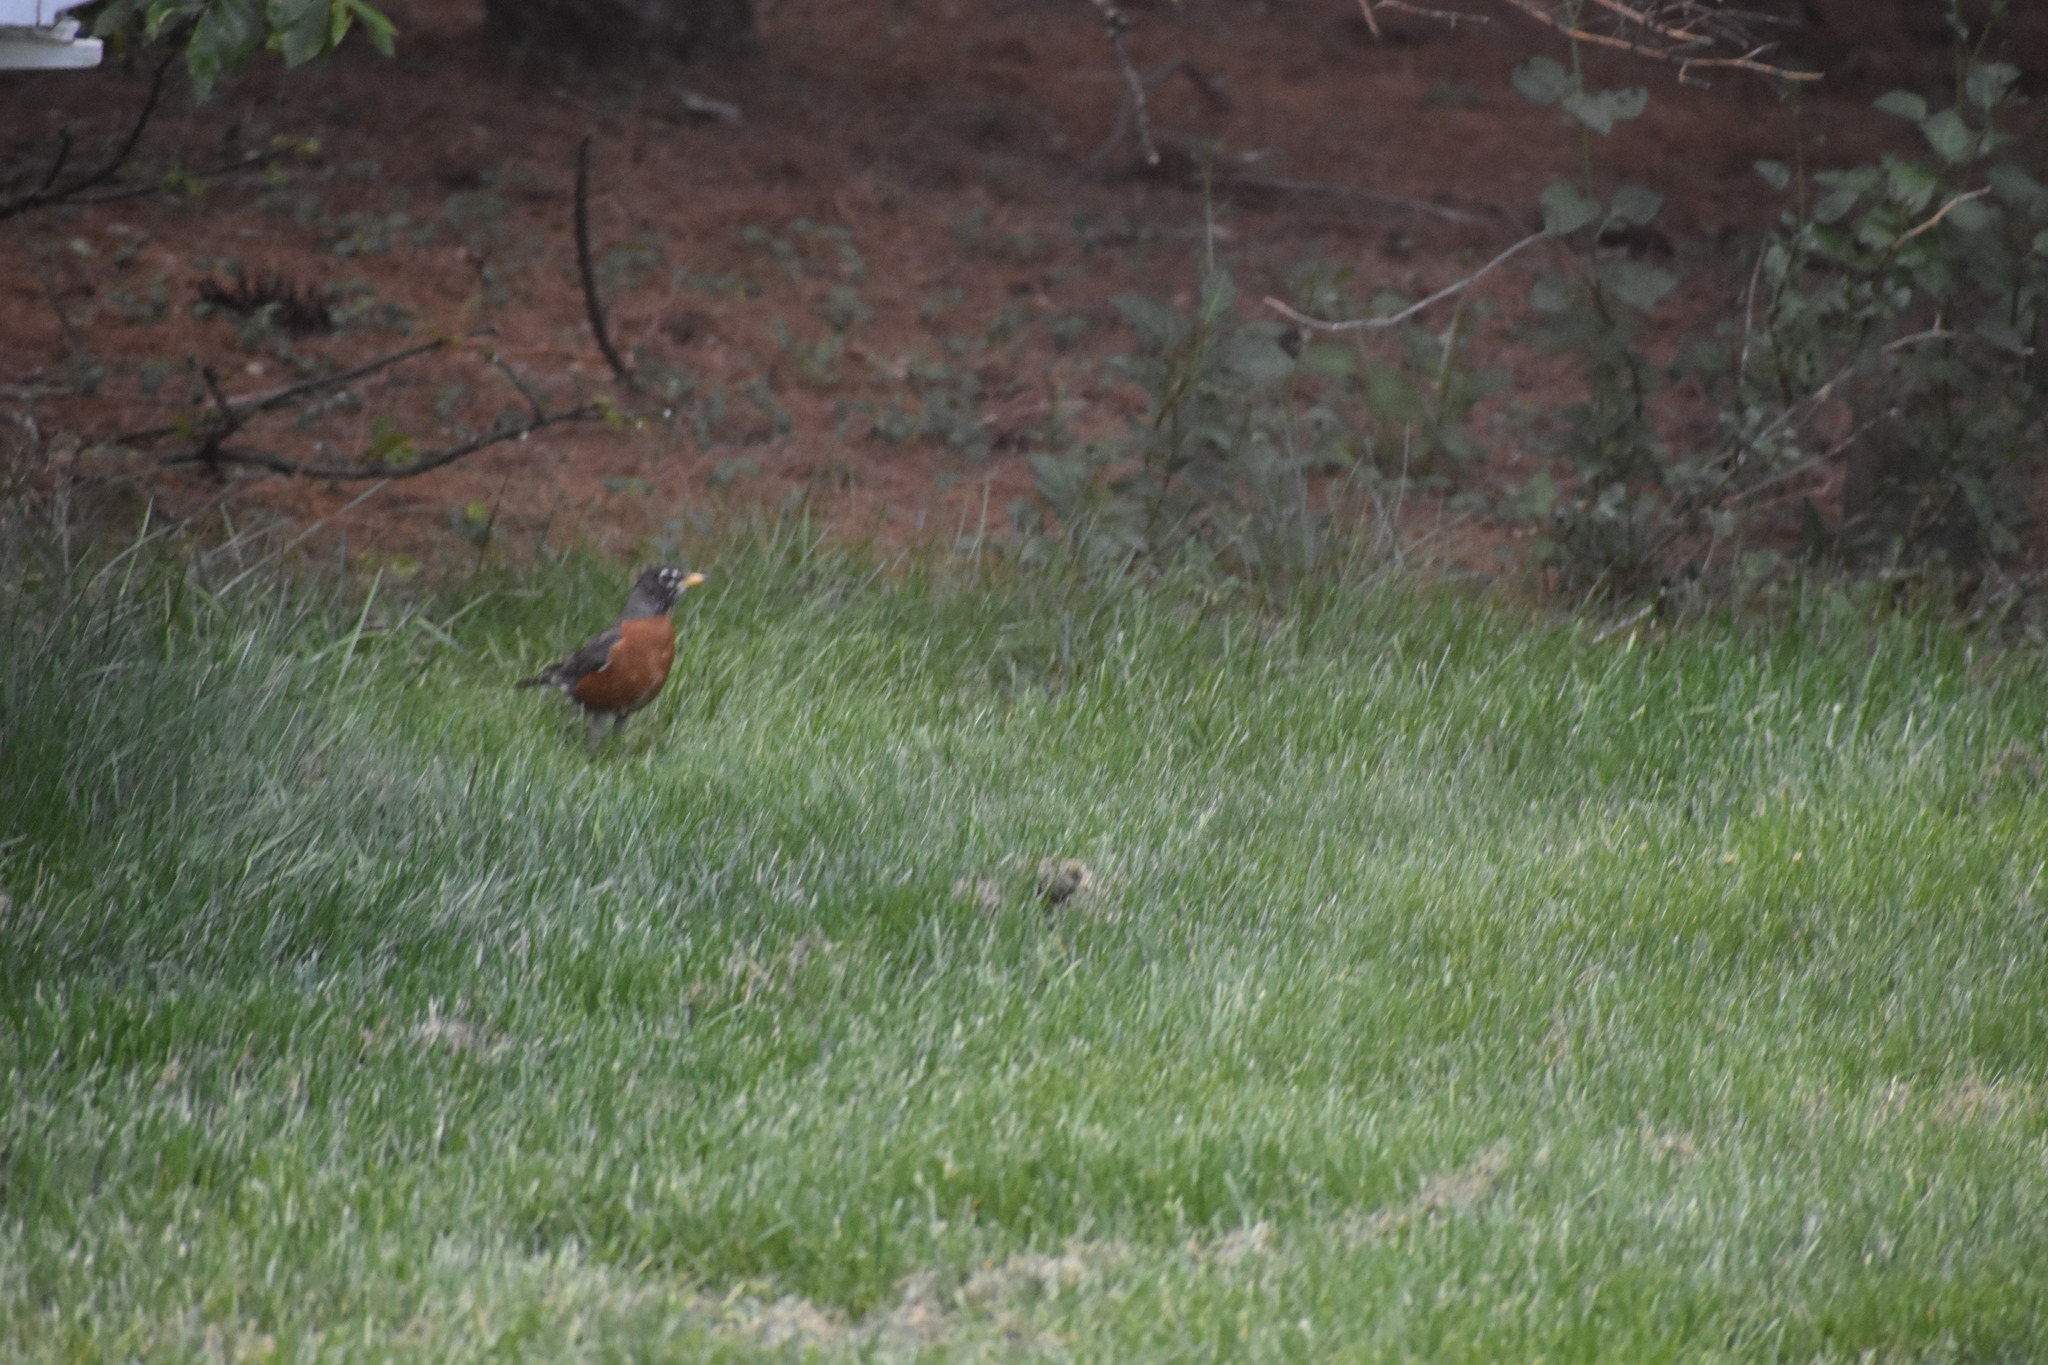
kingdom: Animalia
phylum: Chordata
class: Aves
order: Passeriformes
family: Turdidae
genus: Turdus
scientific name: Turdus migratorius
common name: American robin
